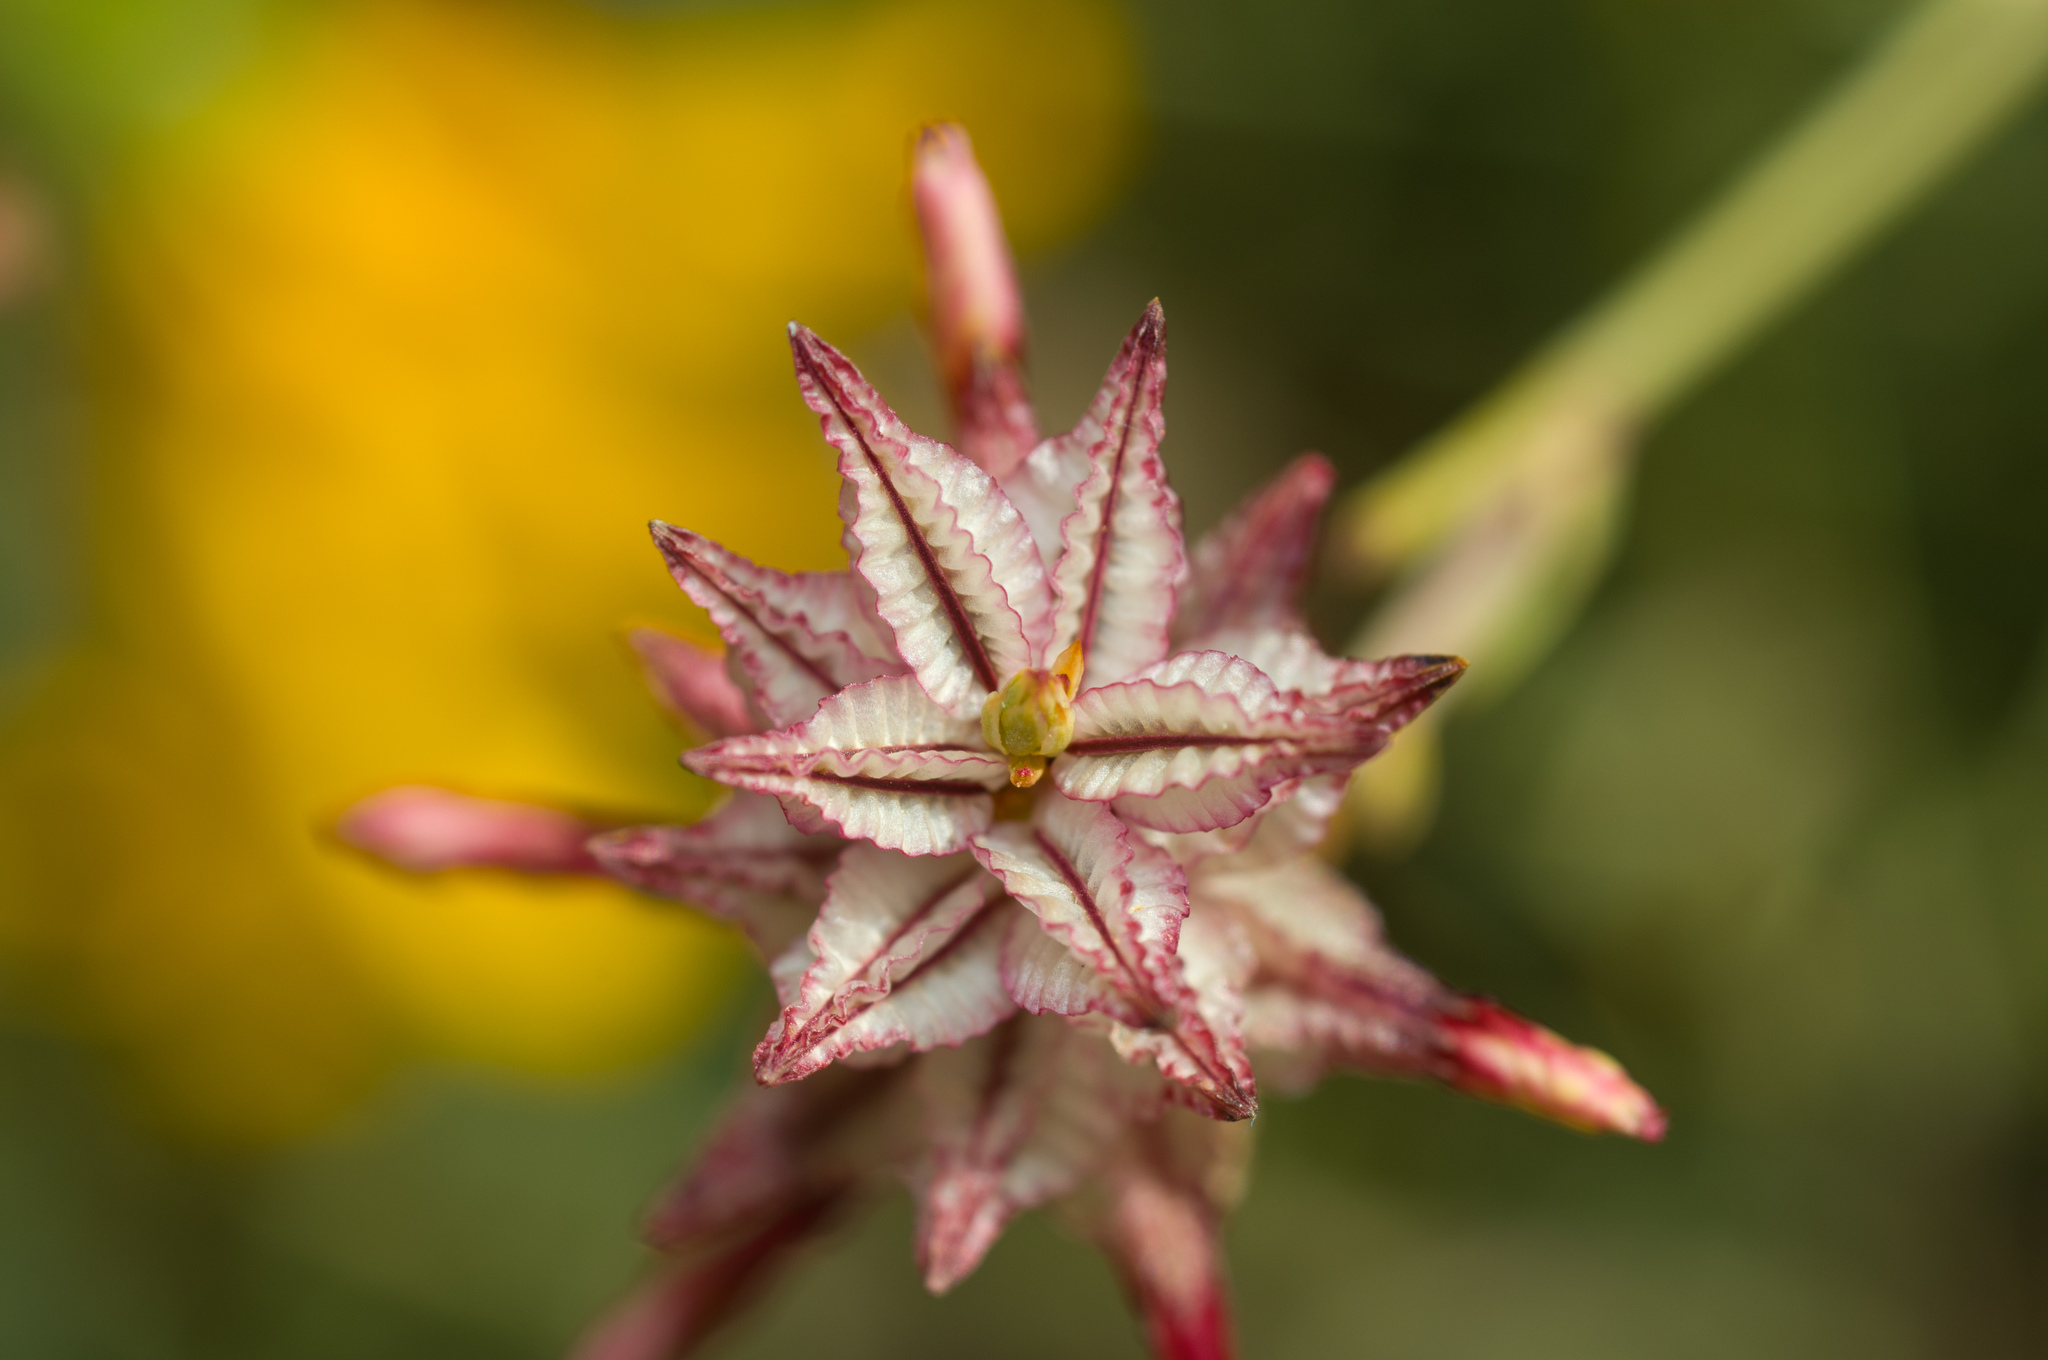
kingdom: Plantae
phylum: Tracheophyta
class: Magnoliopsida
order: Caryophyllales
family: Plumbaginaceae
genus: Dyerophytum
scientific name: Dyerophytum africanum
